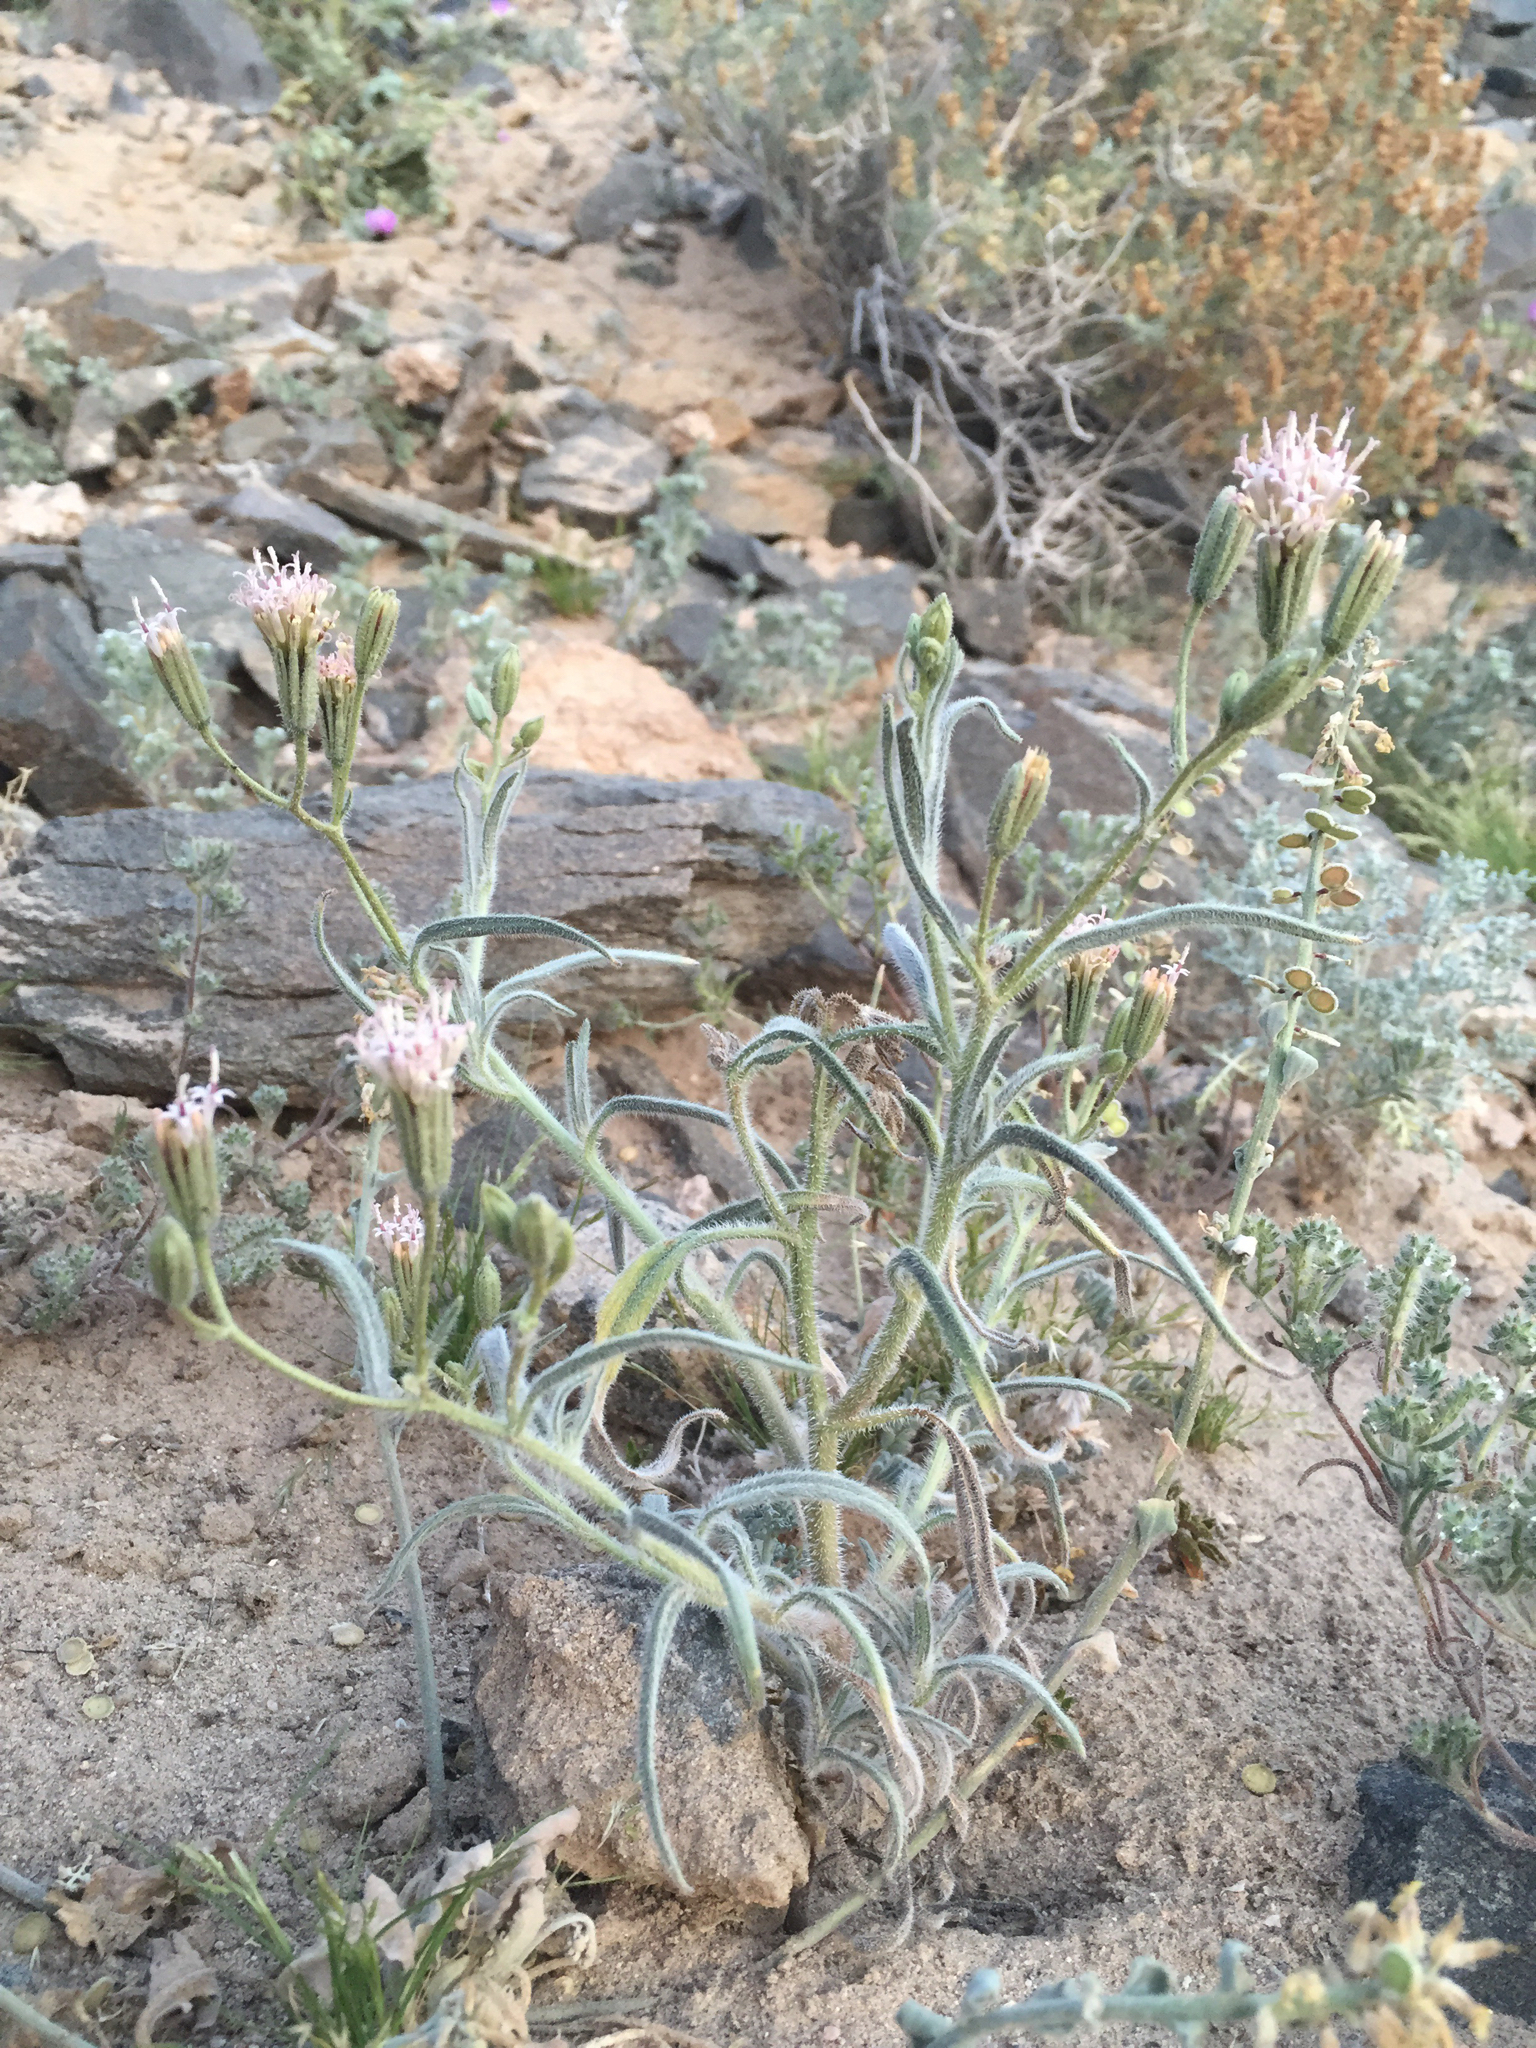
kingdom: Plantae
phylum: Tracheophyta
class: Magnoliopsida
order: Asterales
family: Asteraceae
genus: Palafoxia
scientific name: Palafoxia arida
